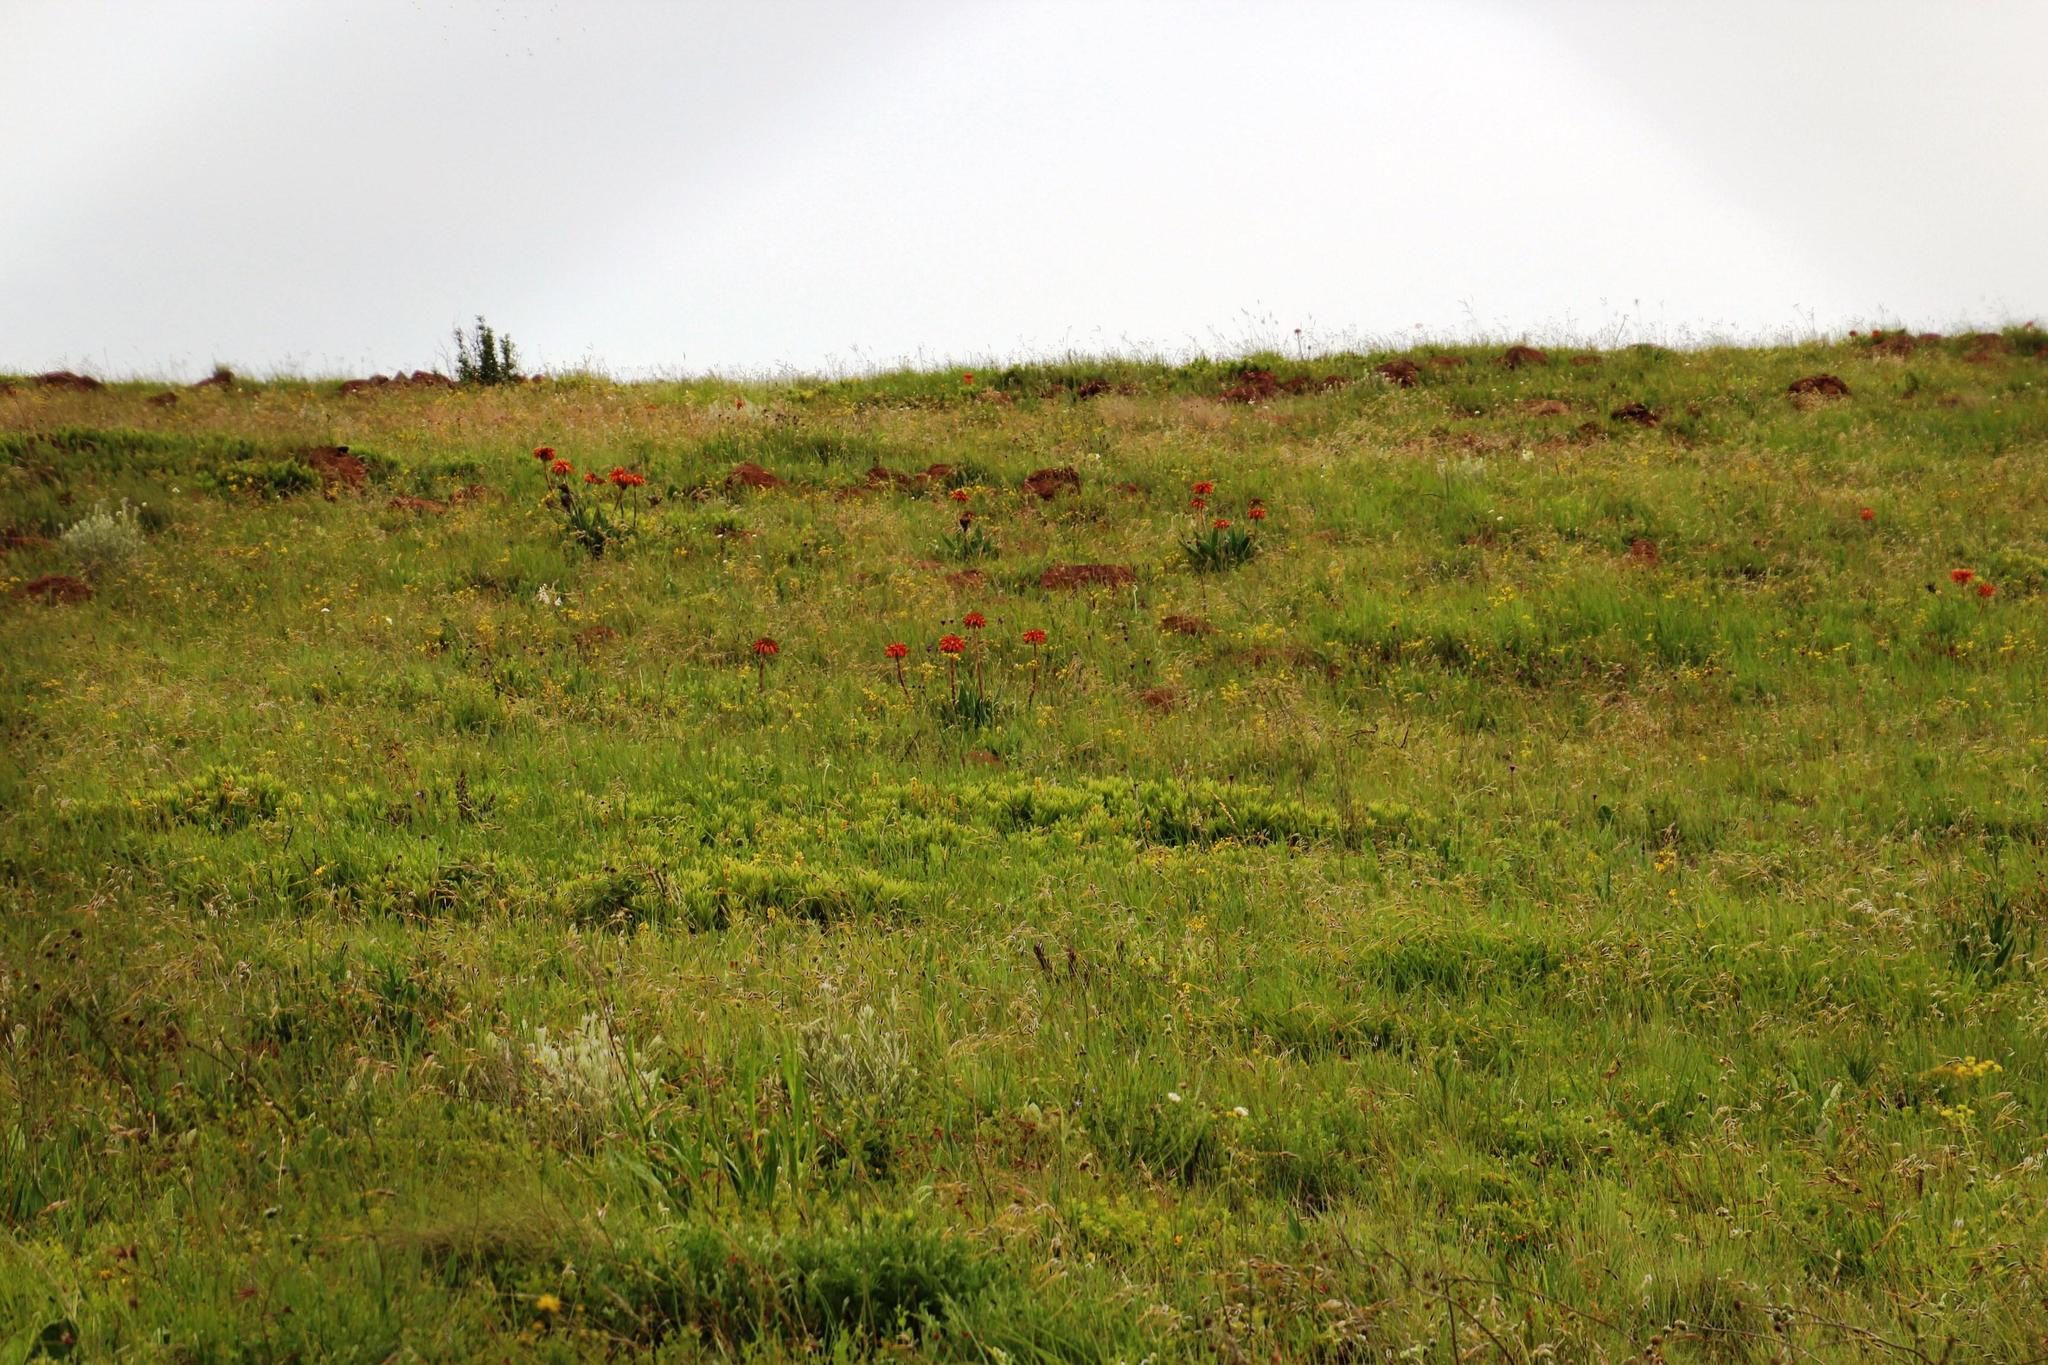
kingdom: Plantae
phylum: Tracheophyta
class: Liliopsida
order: Asparagales
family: Asphodelaceae
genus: Aloe
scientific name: Aloe ecklonis
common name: Ecklon's aloe
